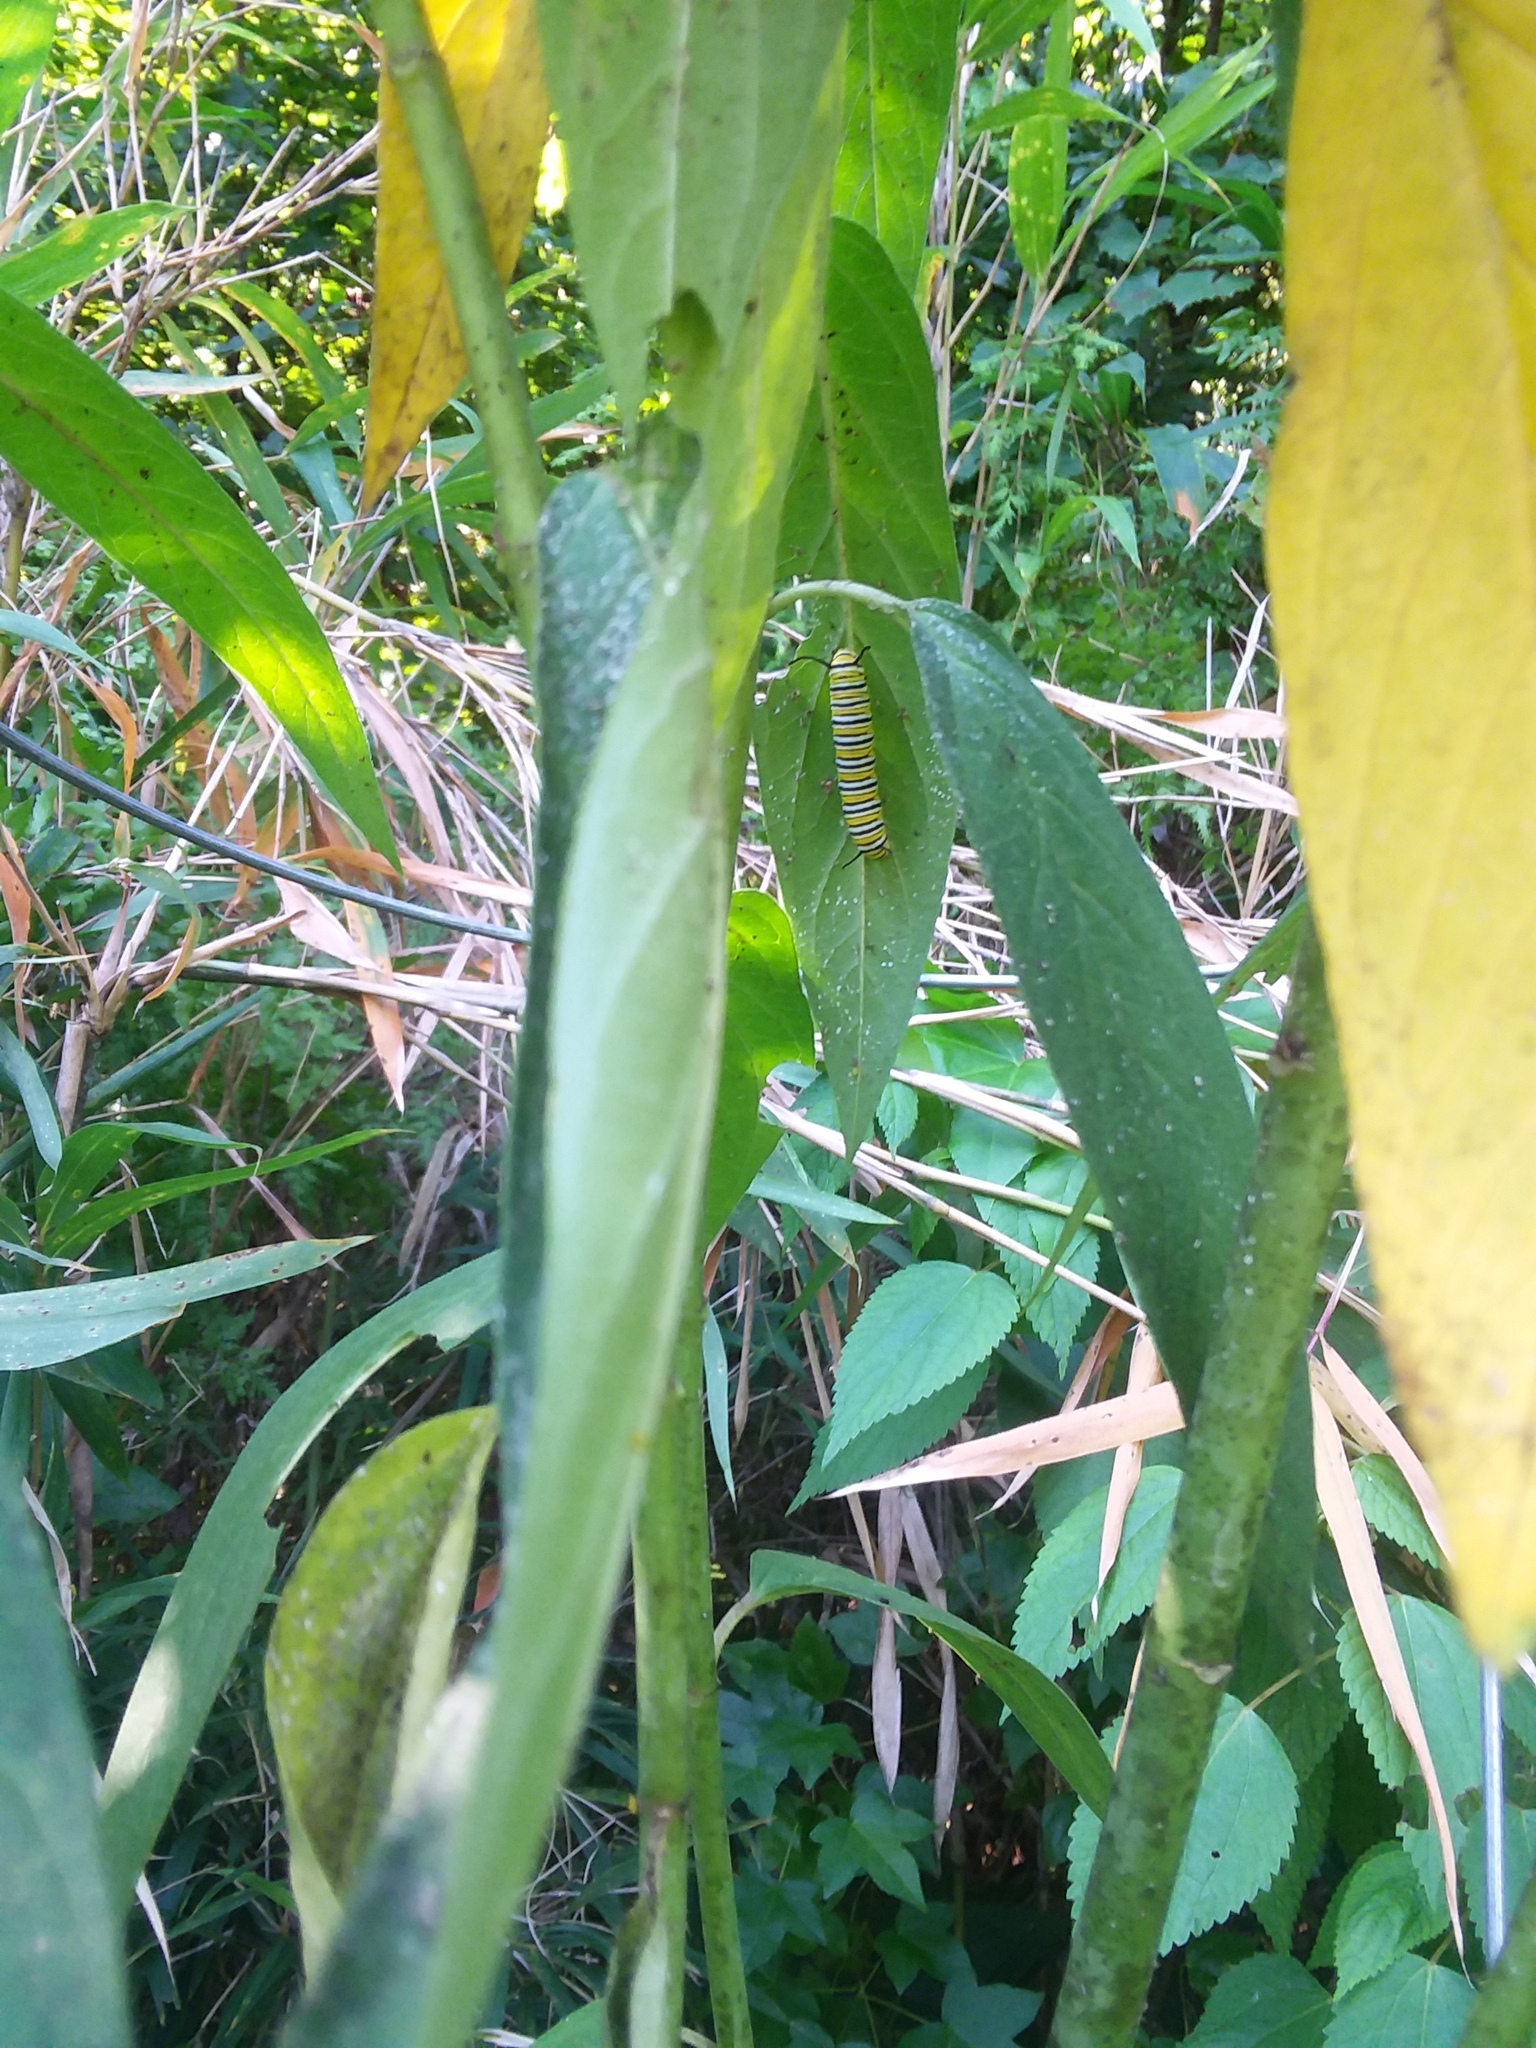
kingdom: Animalia
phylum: Arthropoda
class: Insecta
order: Lepidoptera
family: Nymphalidae
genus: Danaus
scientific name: Danaus plexippus
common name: Monarch
